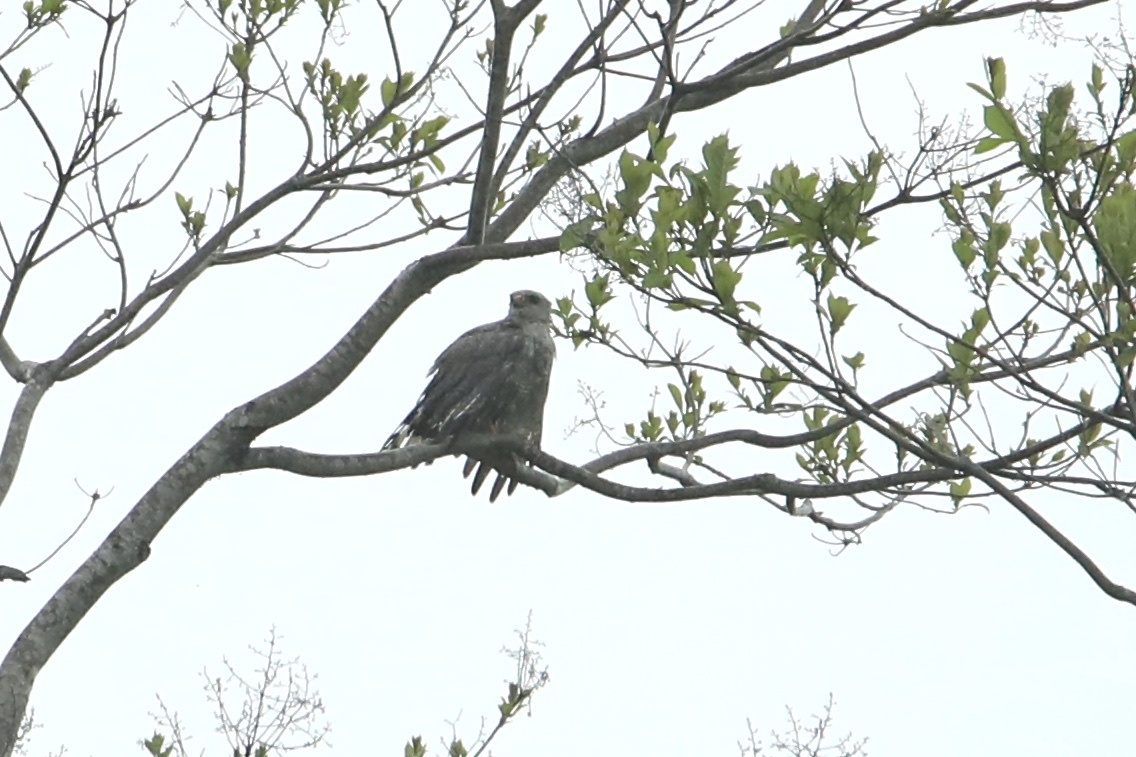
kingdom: Animalia
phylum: Chordata
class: Aves
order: Accipitriformes
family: Accipitridae
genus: Buteo
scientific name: Buteo nitidus
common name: Grey-lined hawk
